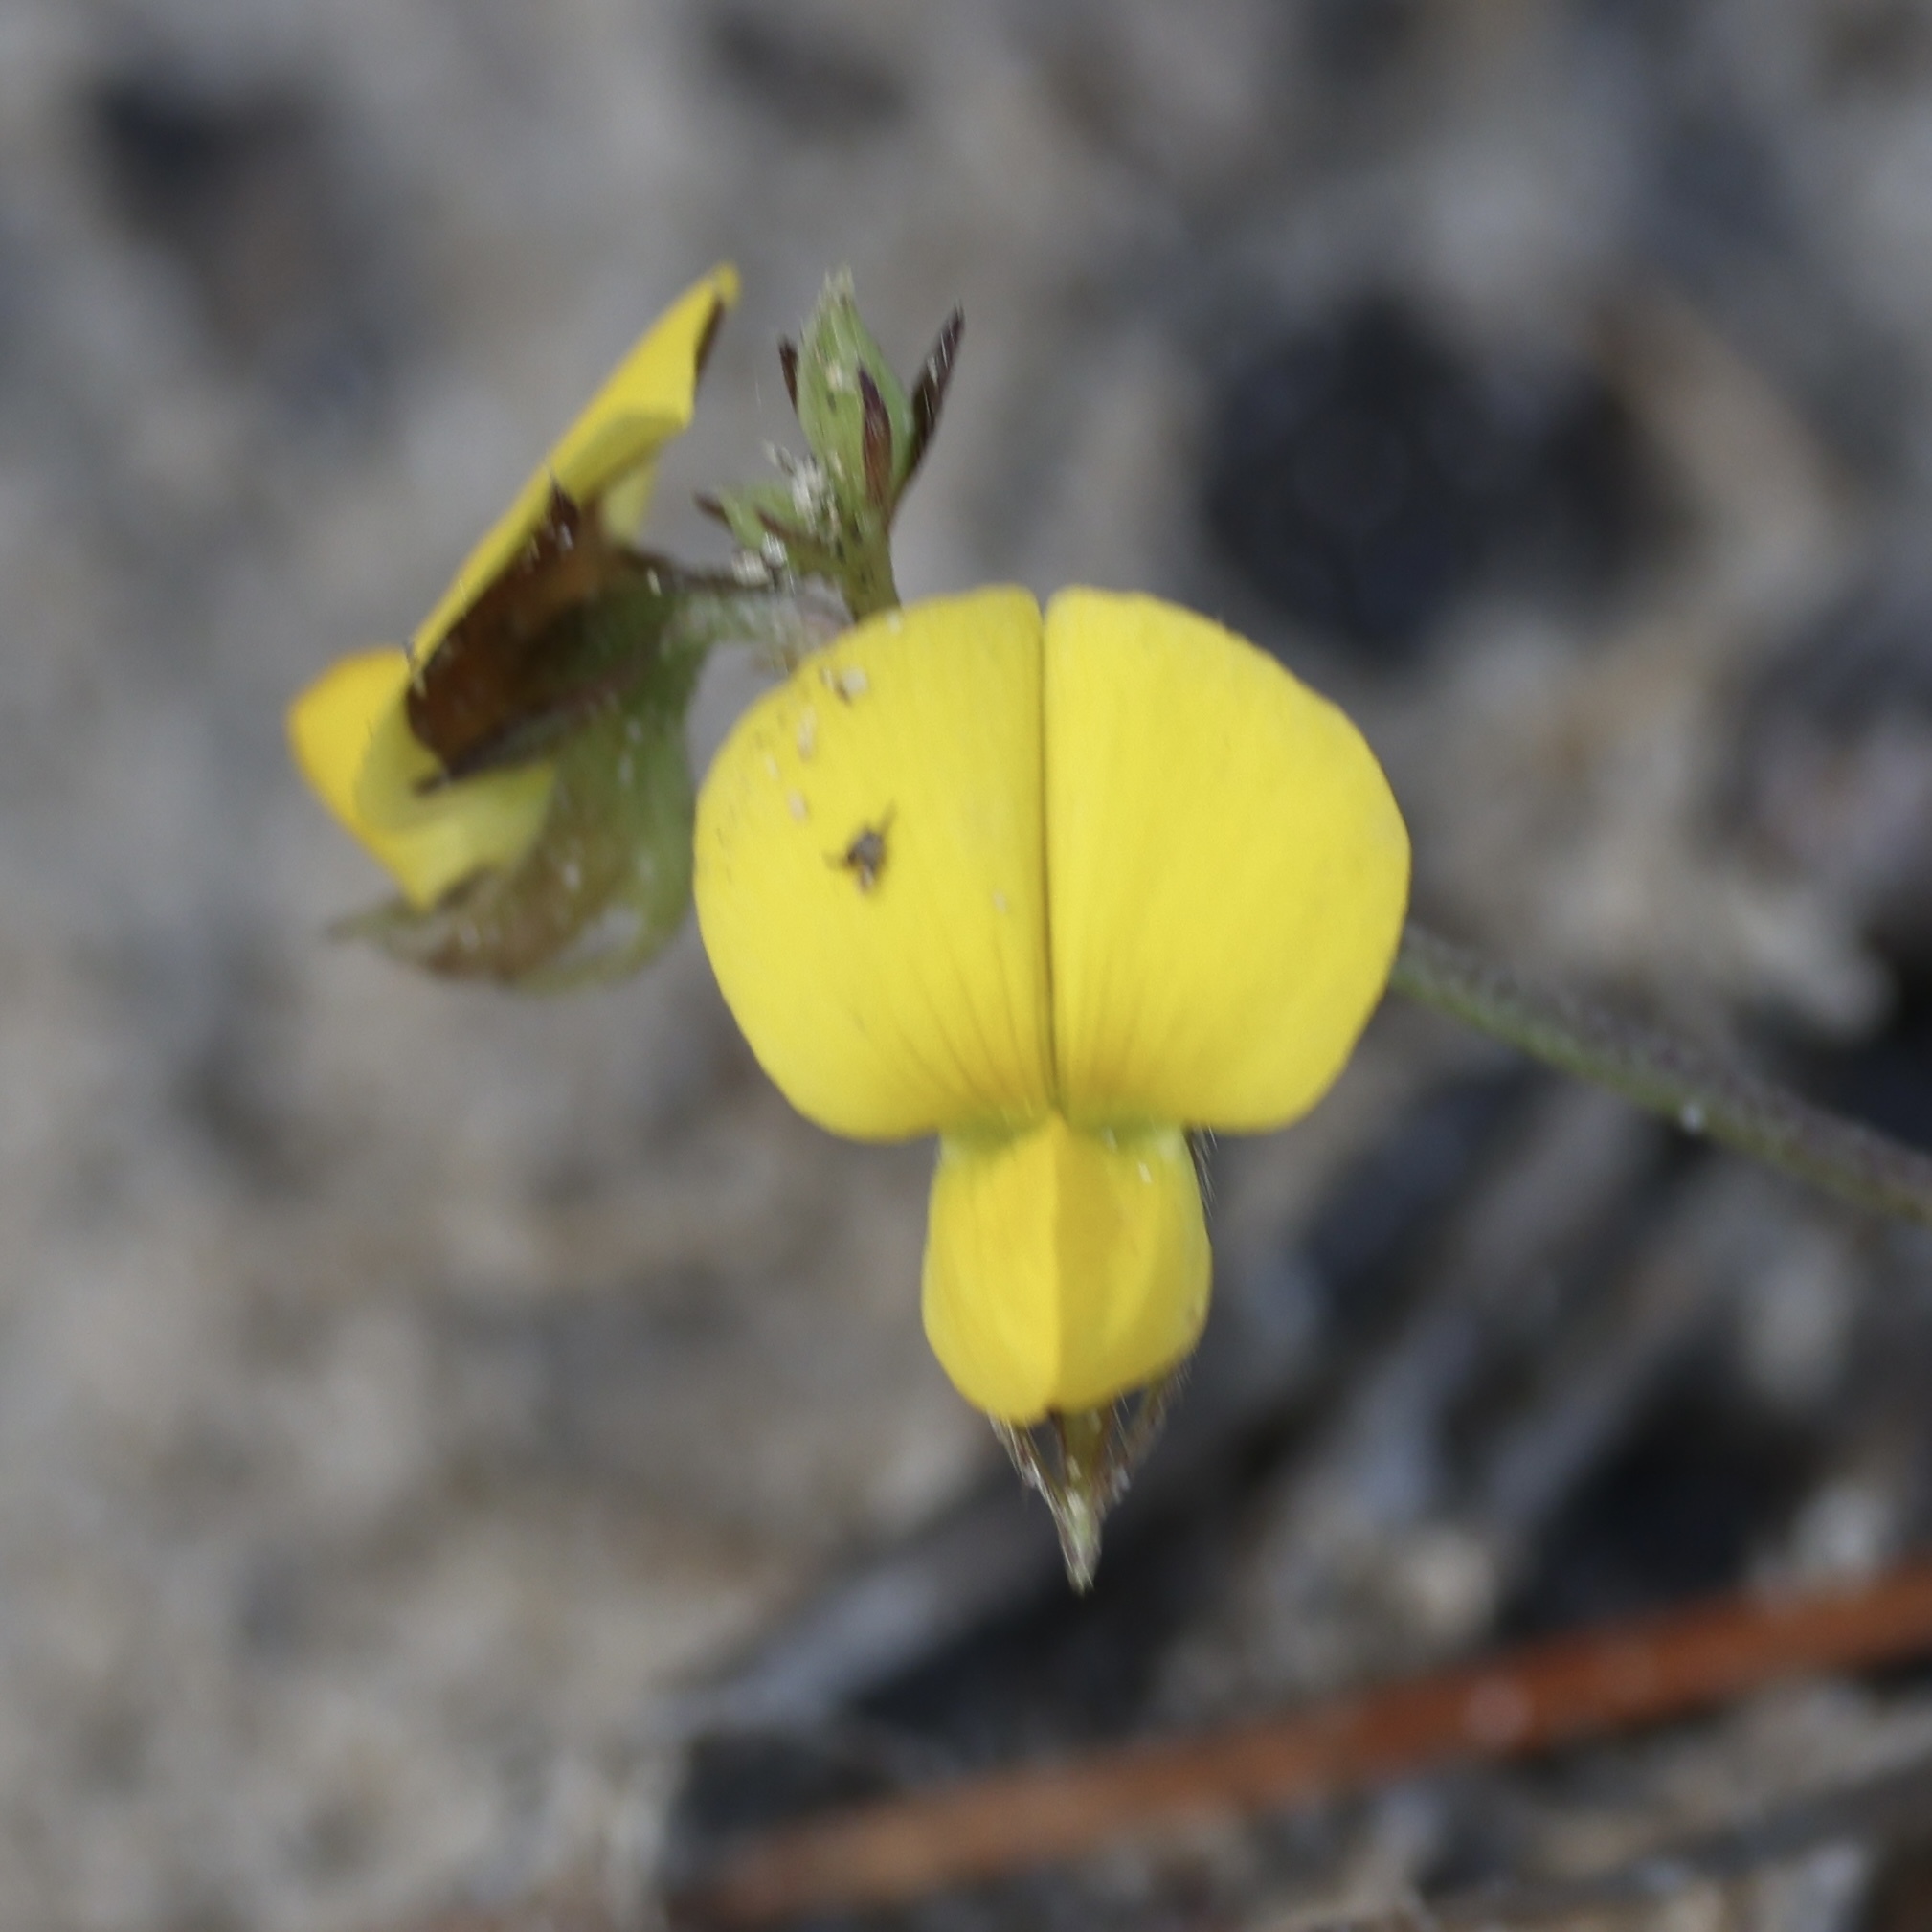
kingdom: Plantae
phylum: Tracheophyta
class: Magnoliopsida
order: Fabales
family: Fabaceae
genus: Crotalaria
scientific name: Crotalaria rotundifolia
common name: Prostrate rattlebox
